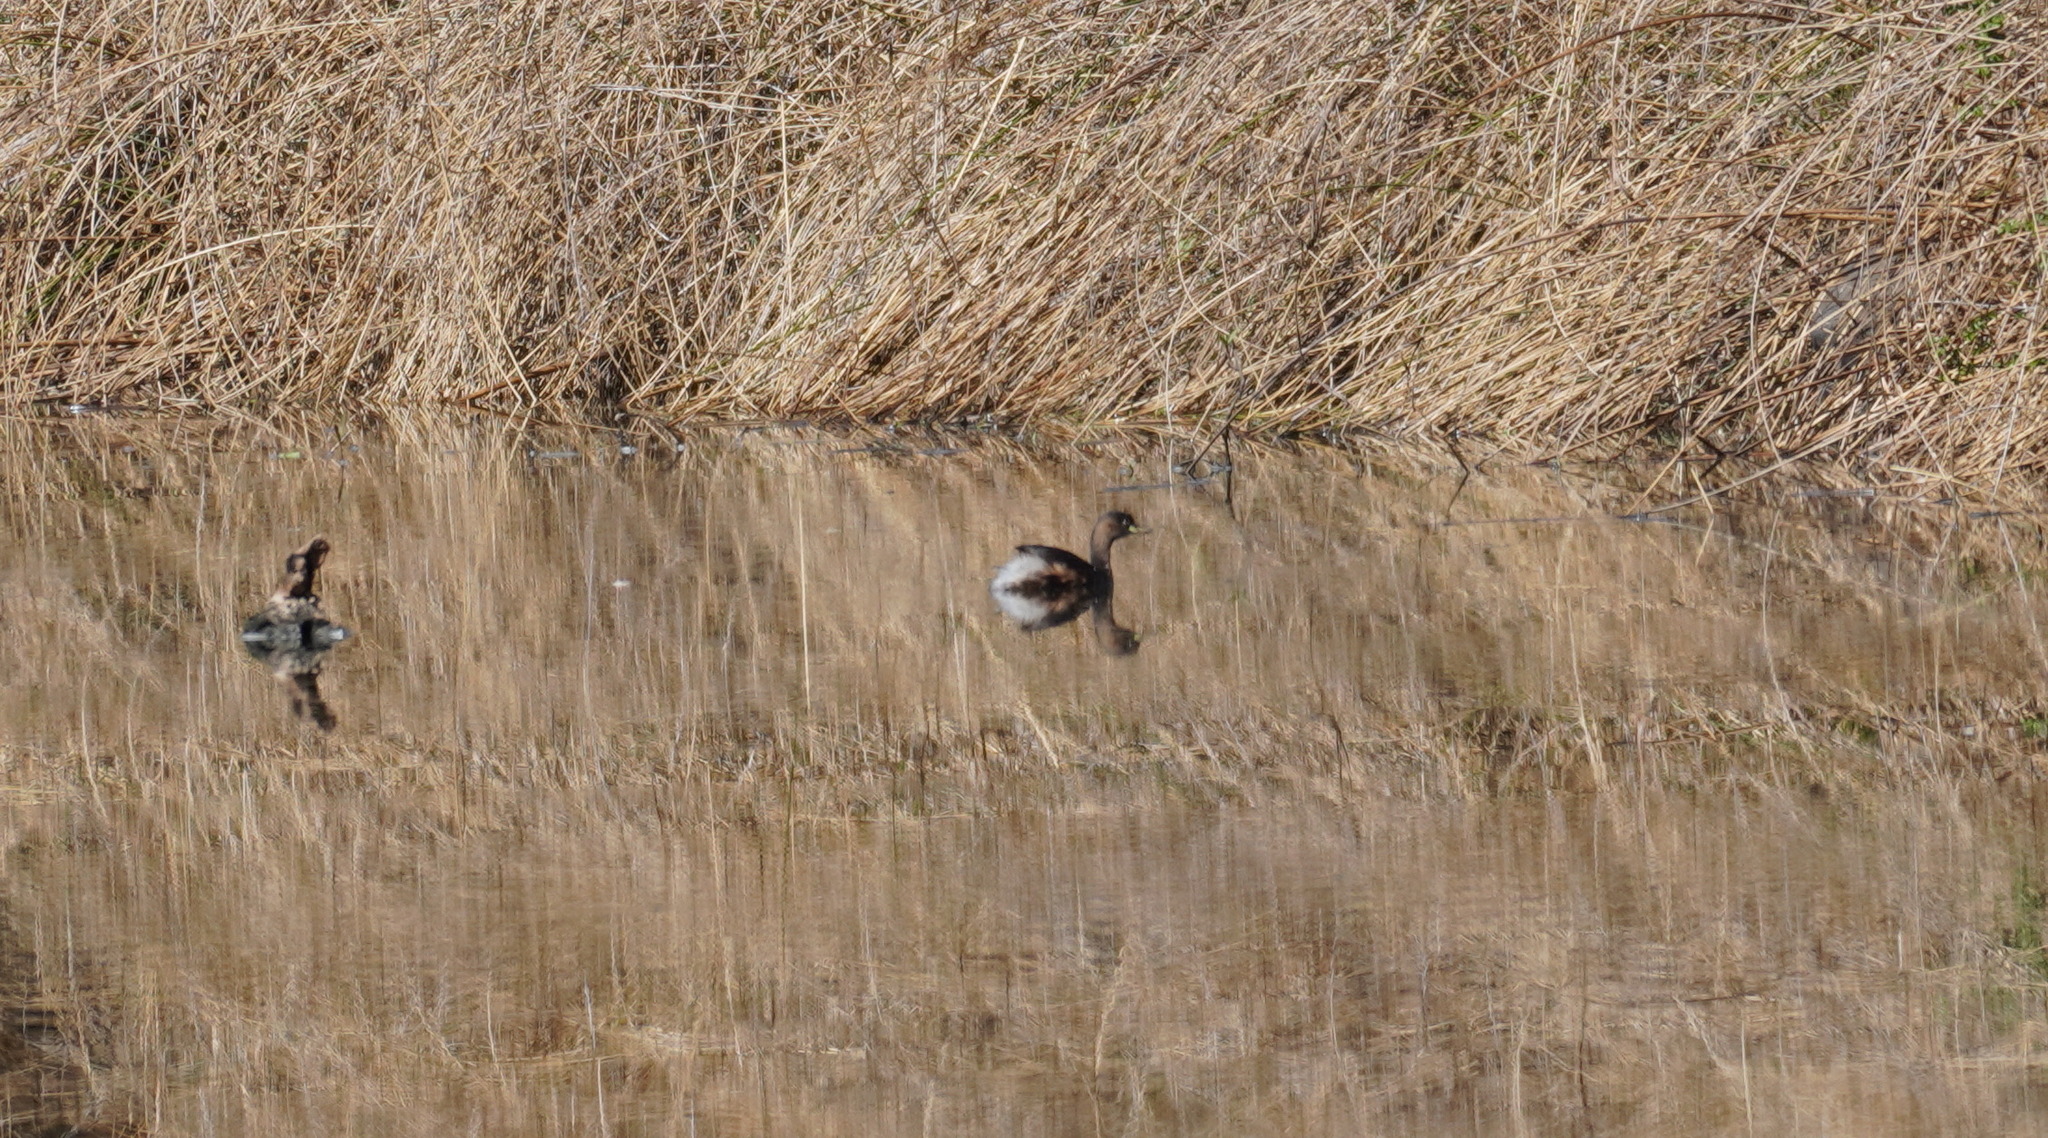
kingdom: Animalia
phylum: Chordata
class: Aves
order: Podicipediformes
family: Podicipedidae
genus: Tachybaptus
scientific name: Tachybaptus ruficollis
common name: Little grebe
